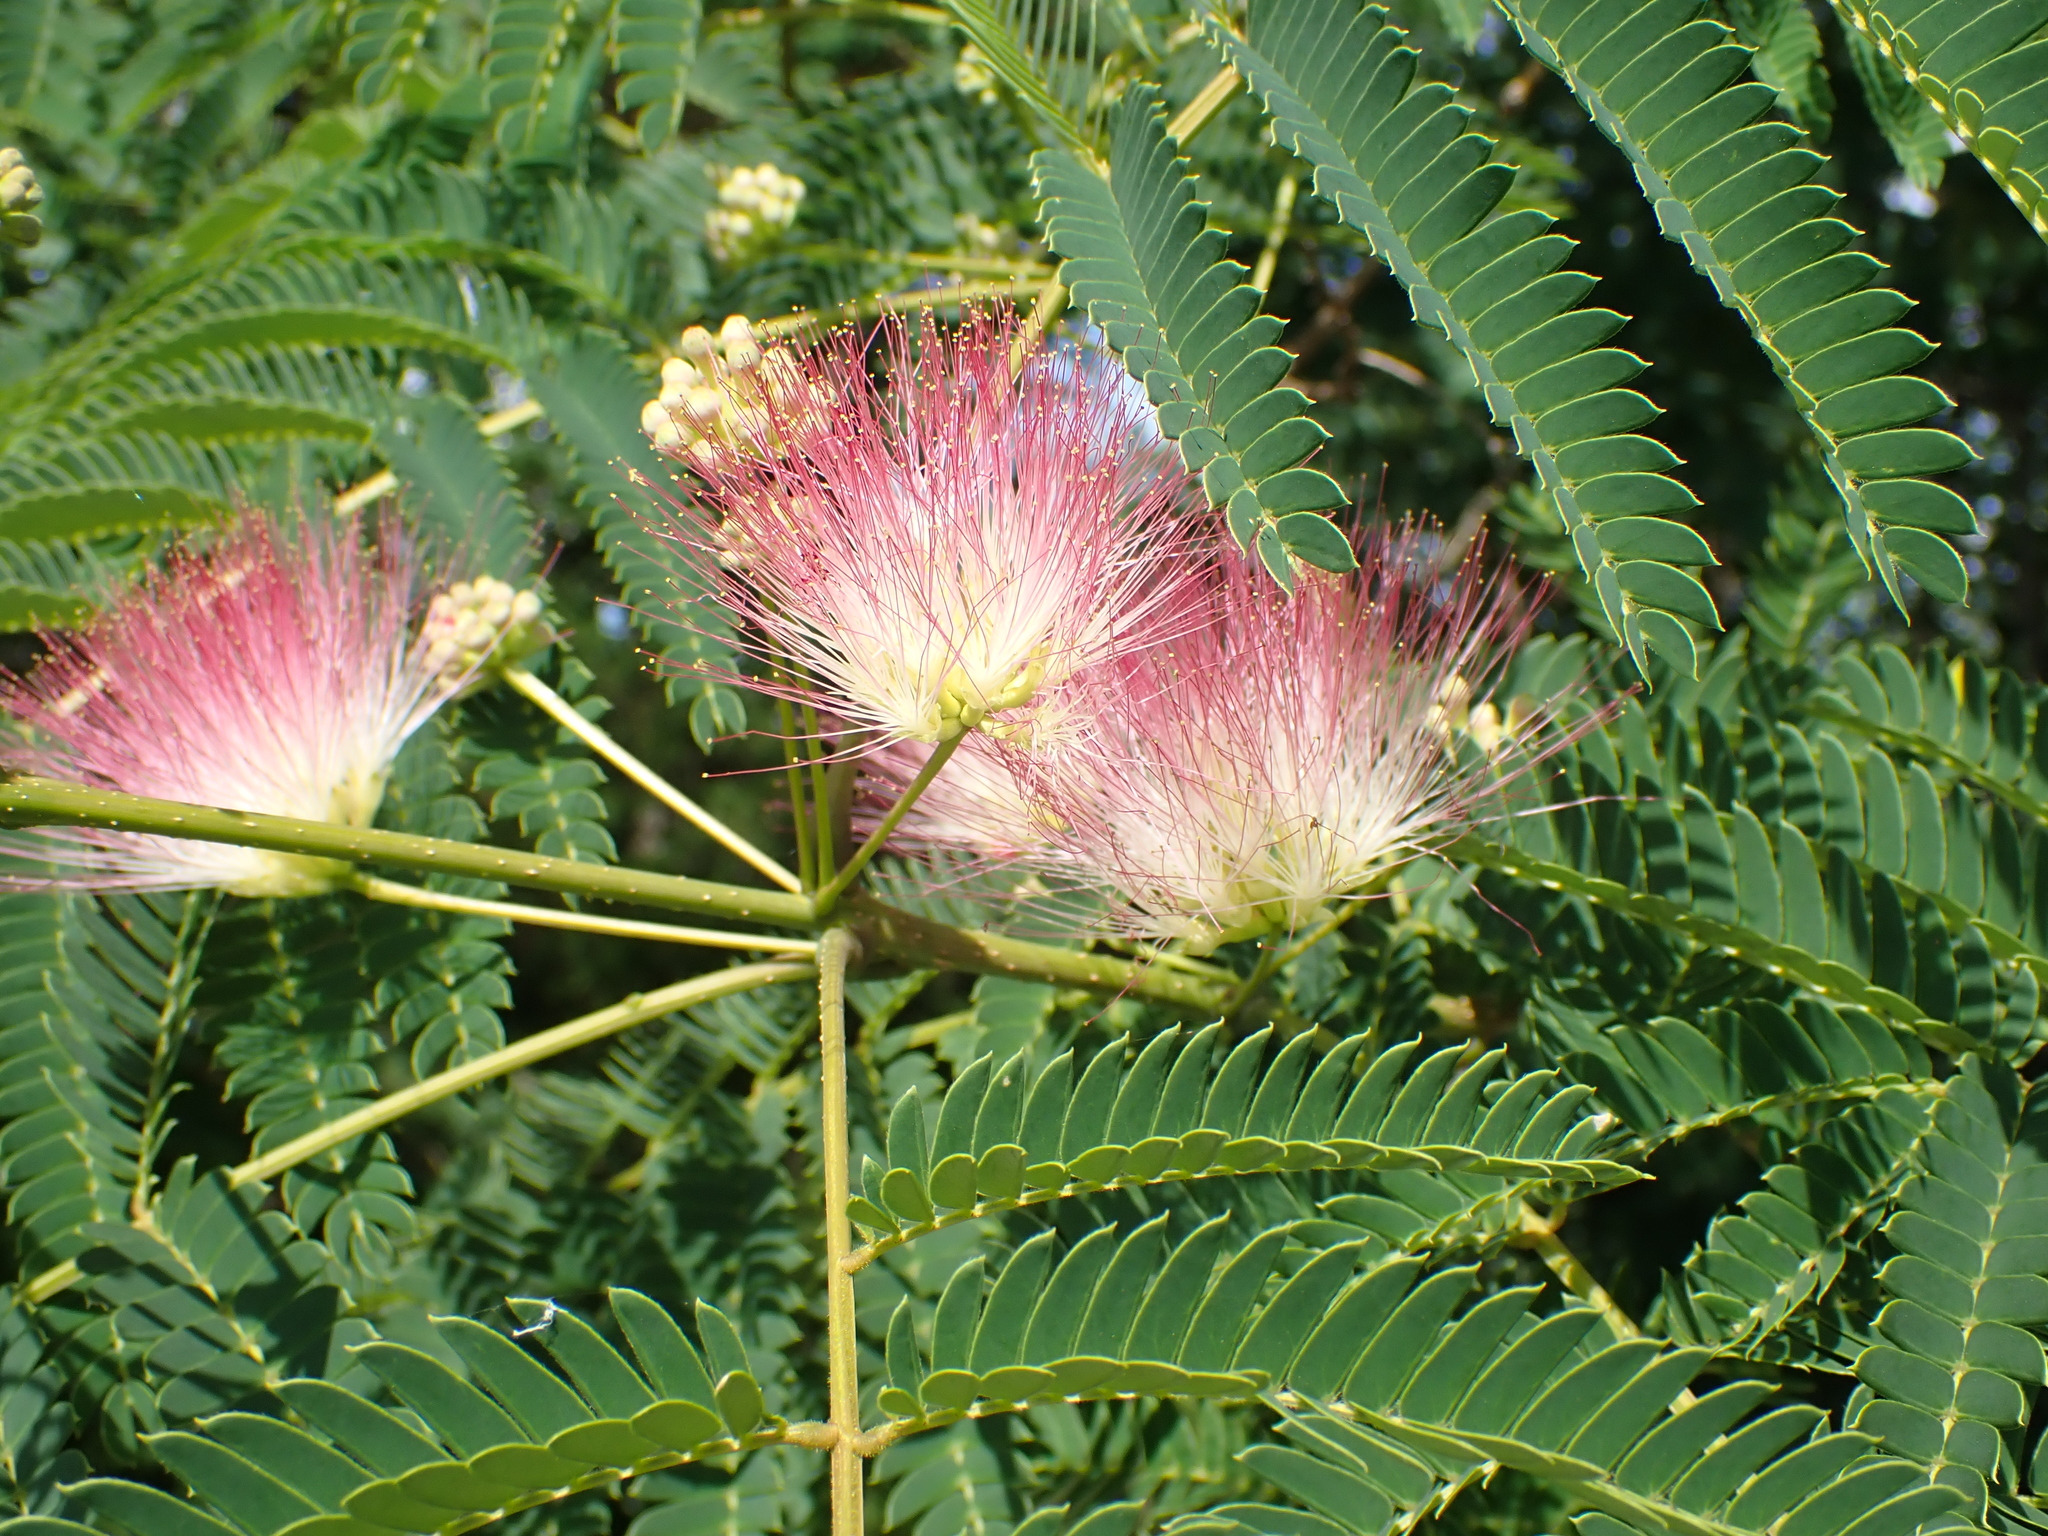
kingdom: Plantae
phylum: Tracheophyta
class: Magnoliopsida
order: Fabales
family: Fabaceae
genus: Albizia
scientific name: Albizia julibrissin
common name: Silktree
